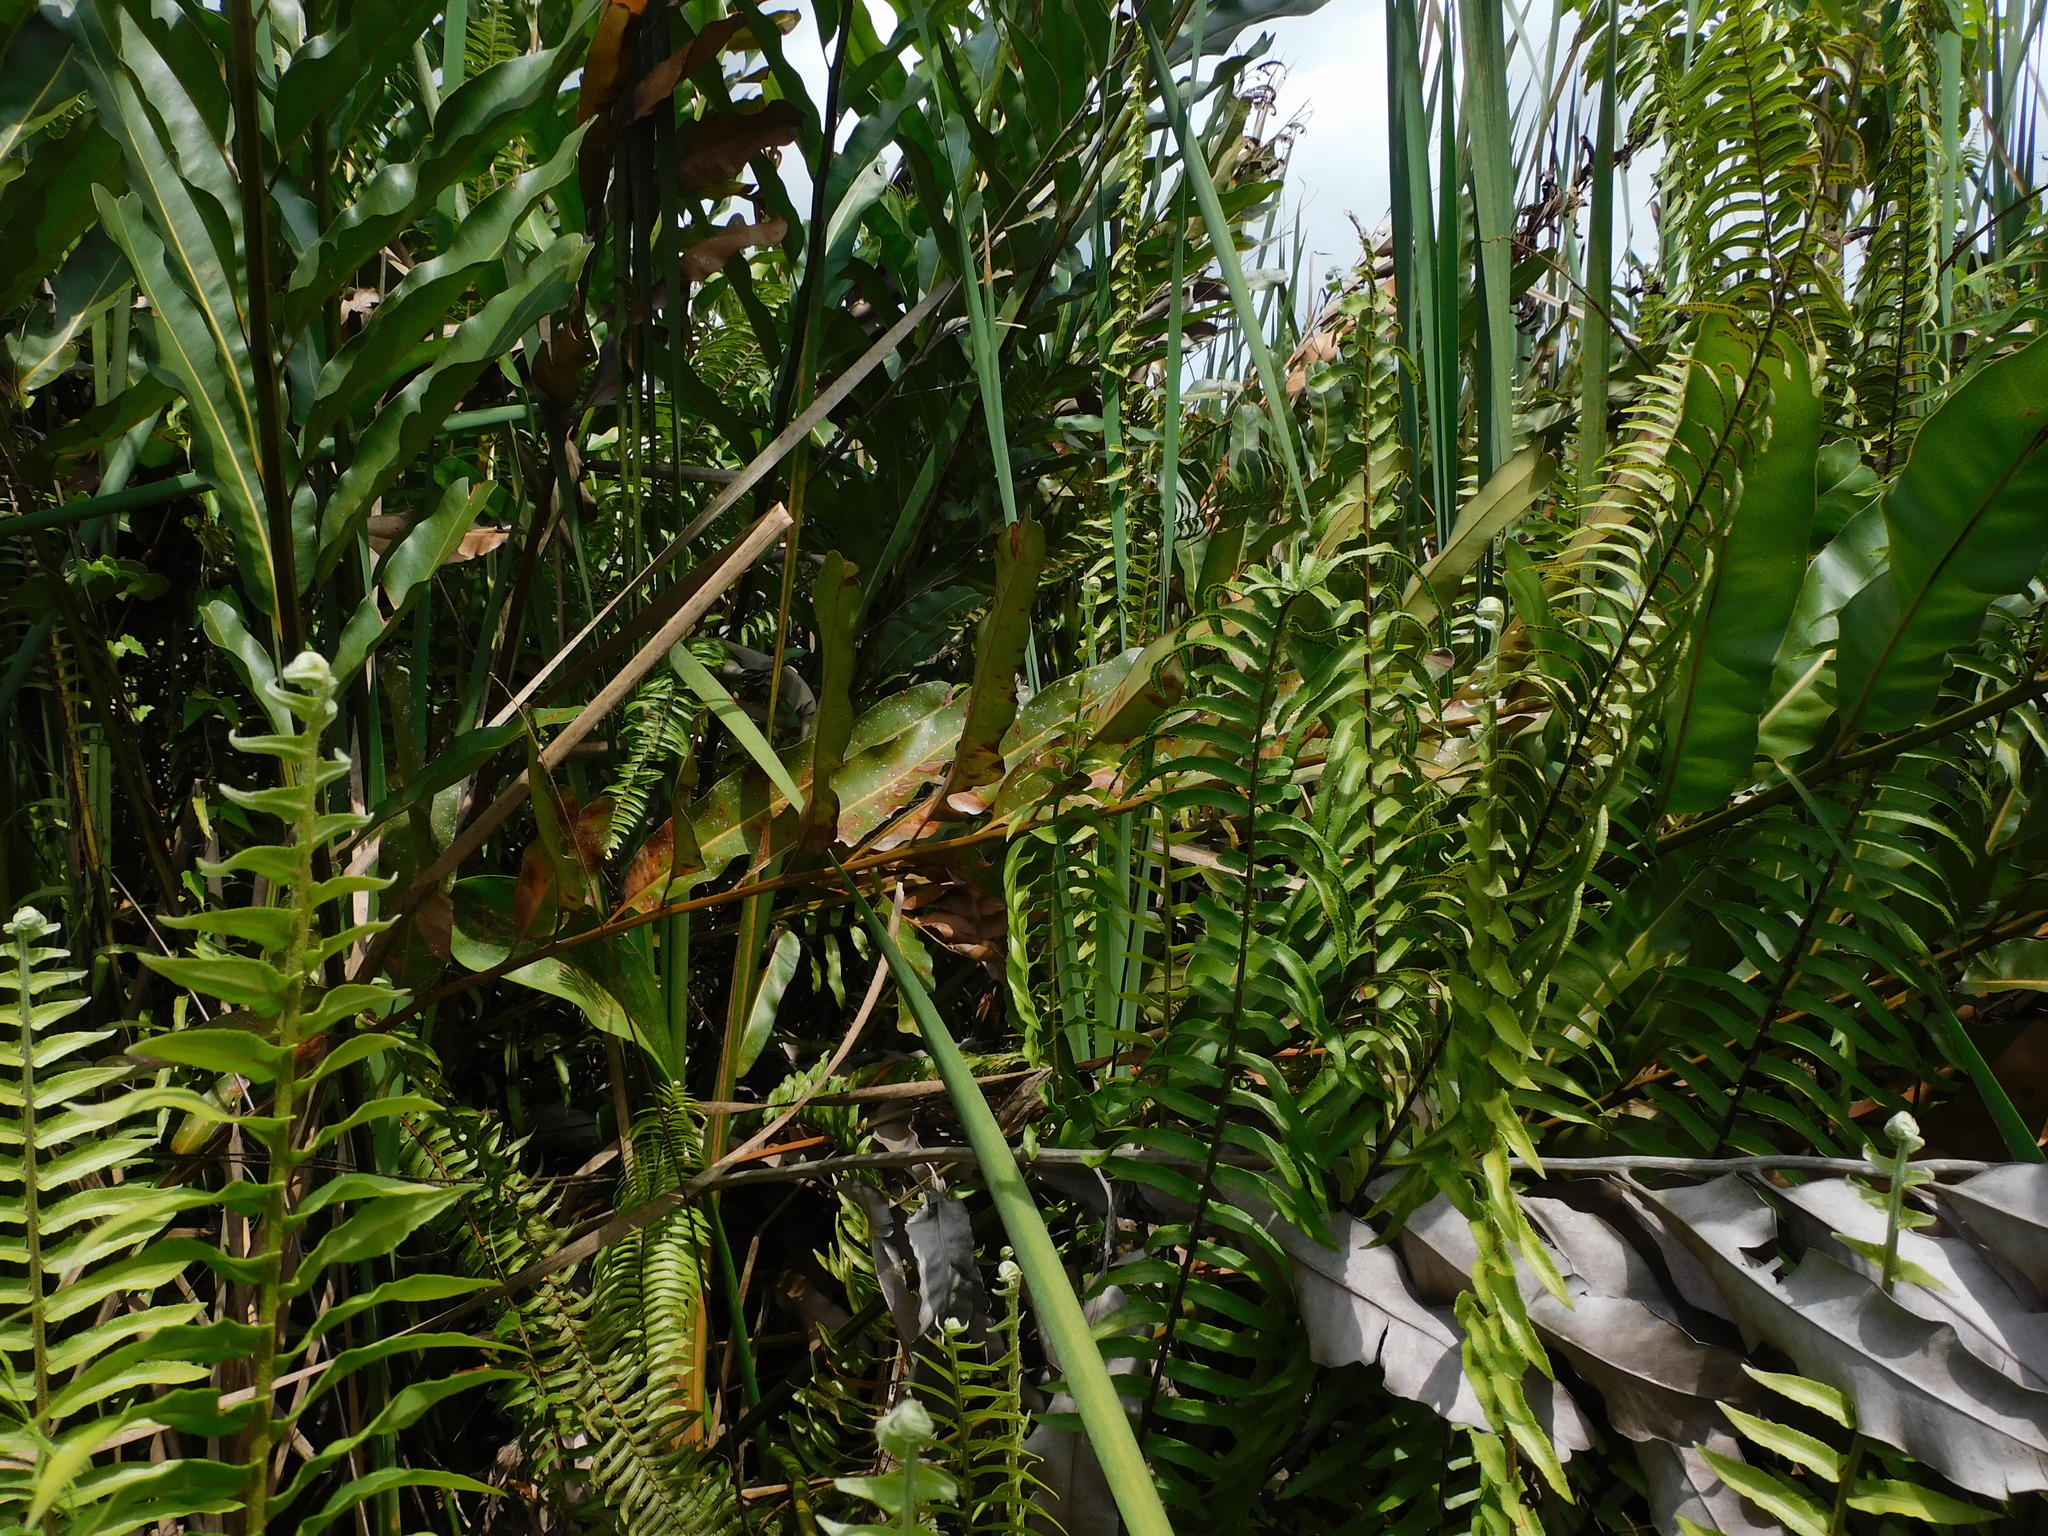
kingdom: Plantae
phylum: Tracheophyta
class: Polypodiopsida
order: Polypodiales
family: Pteridaceae
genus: Acrostichum
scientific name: Acrostichum aureum
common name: Leather fern
